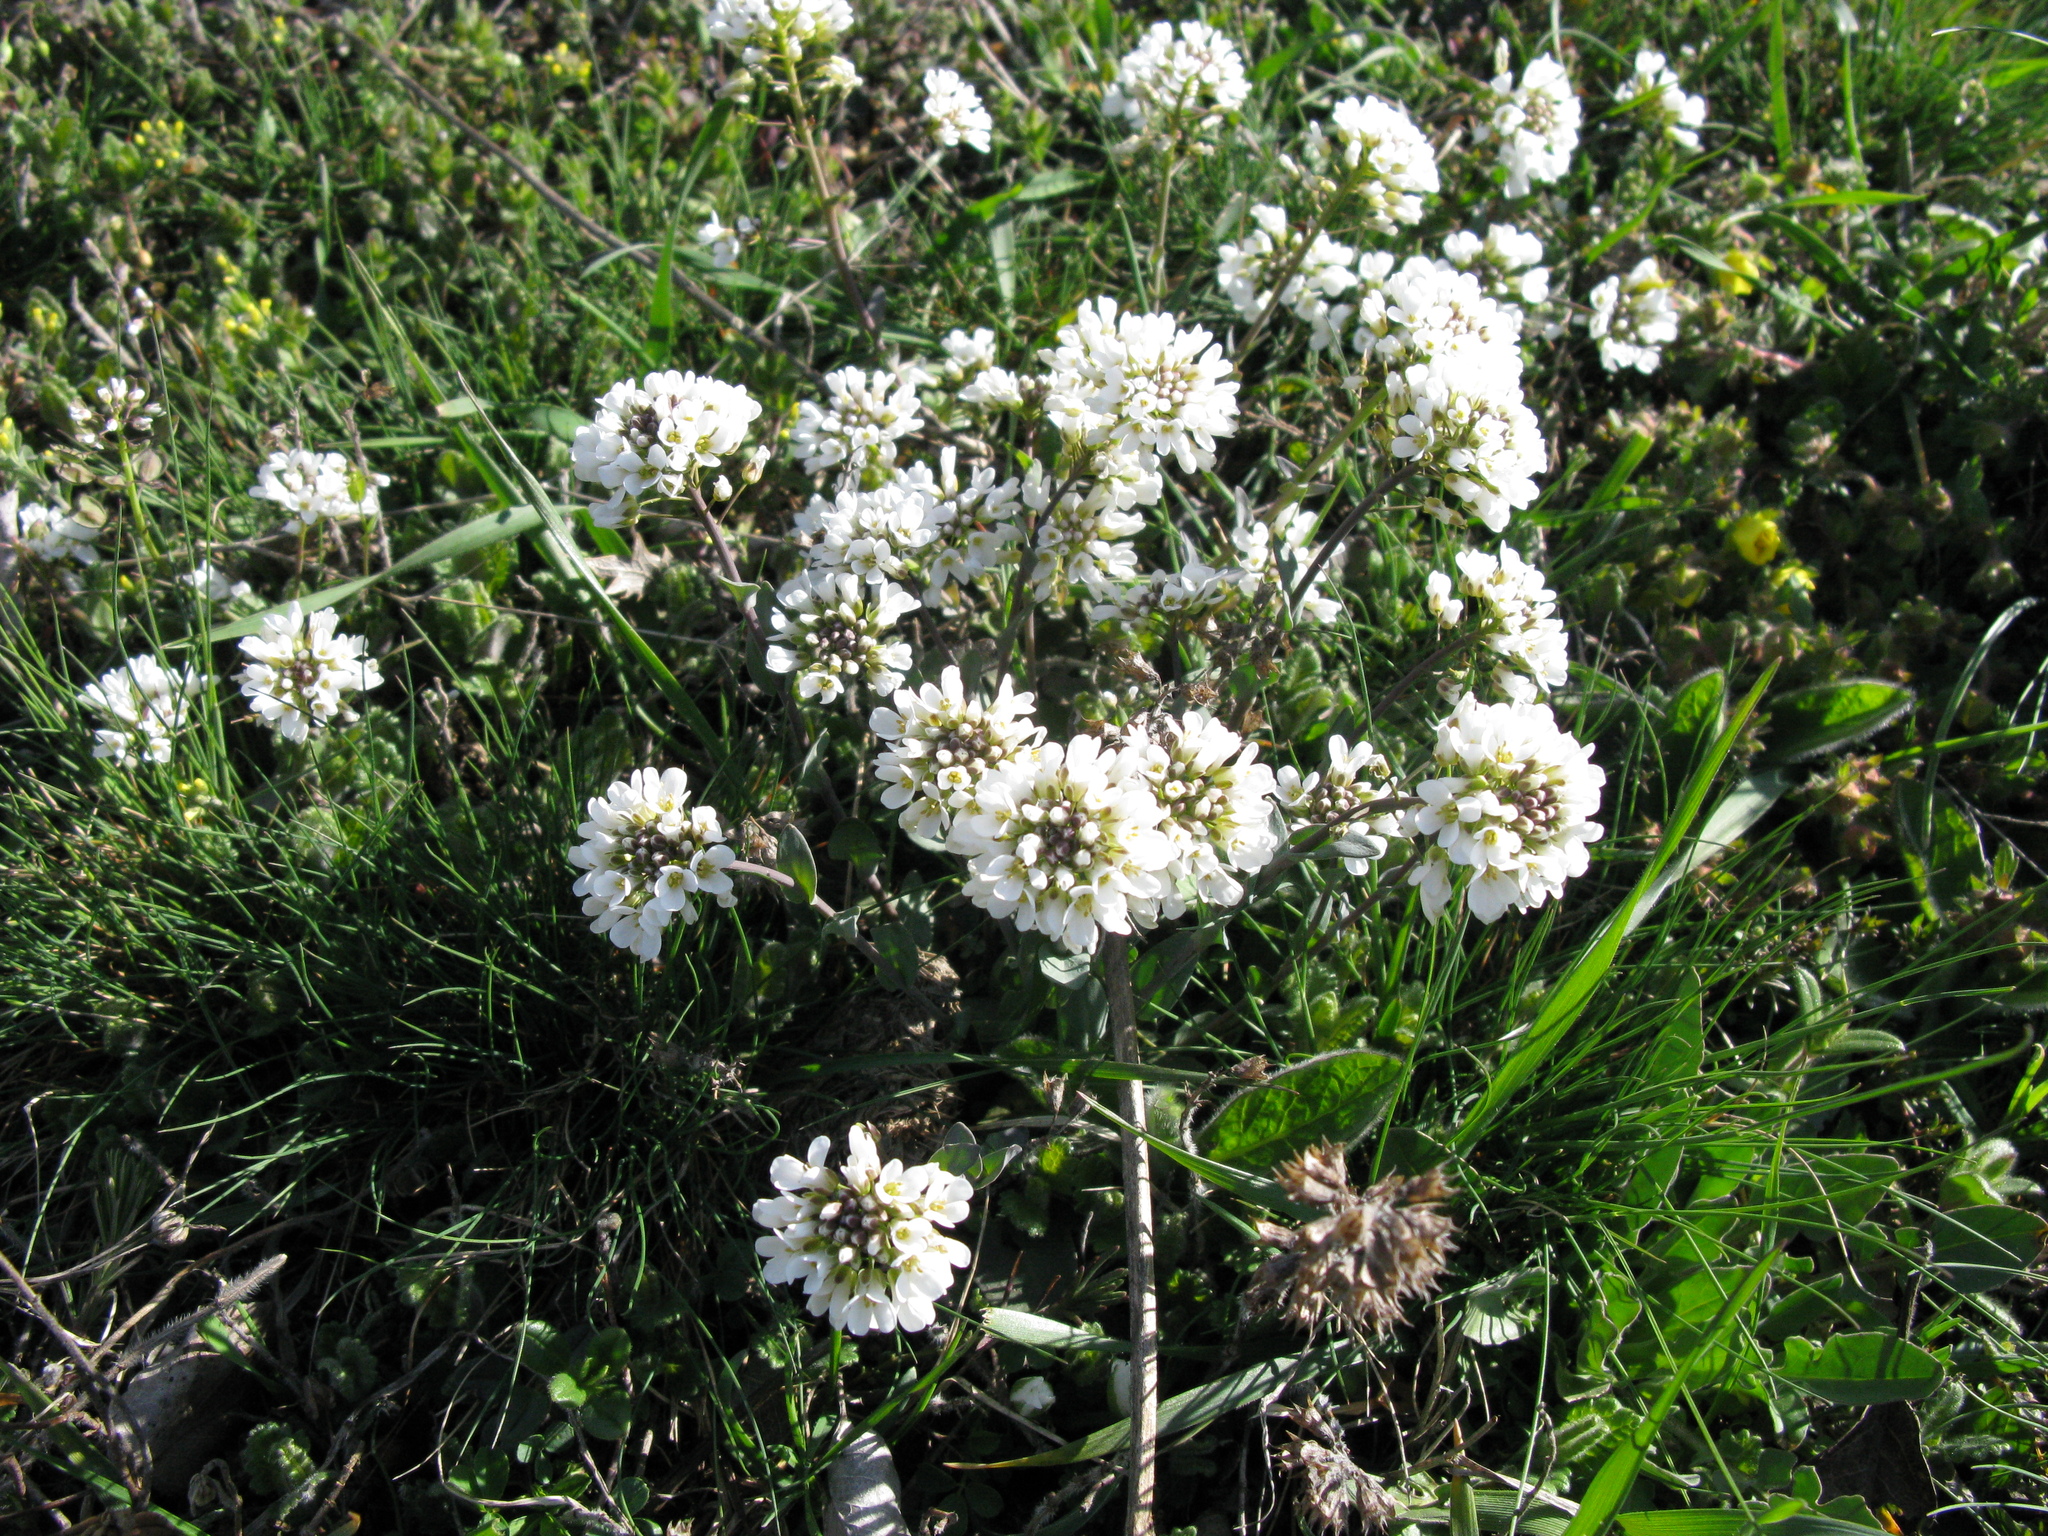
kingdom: Plantae
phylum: Tracheophyta
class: Magnoliopsida
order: Brassicales
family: Brassicaceae
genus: Noccaea
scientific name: Noccaea macrantha
